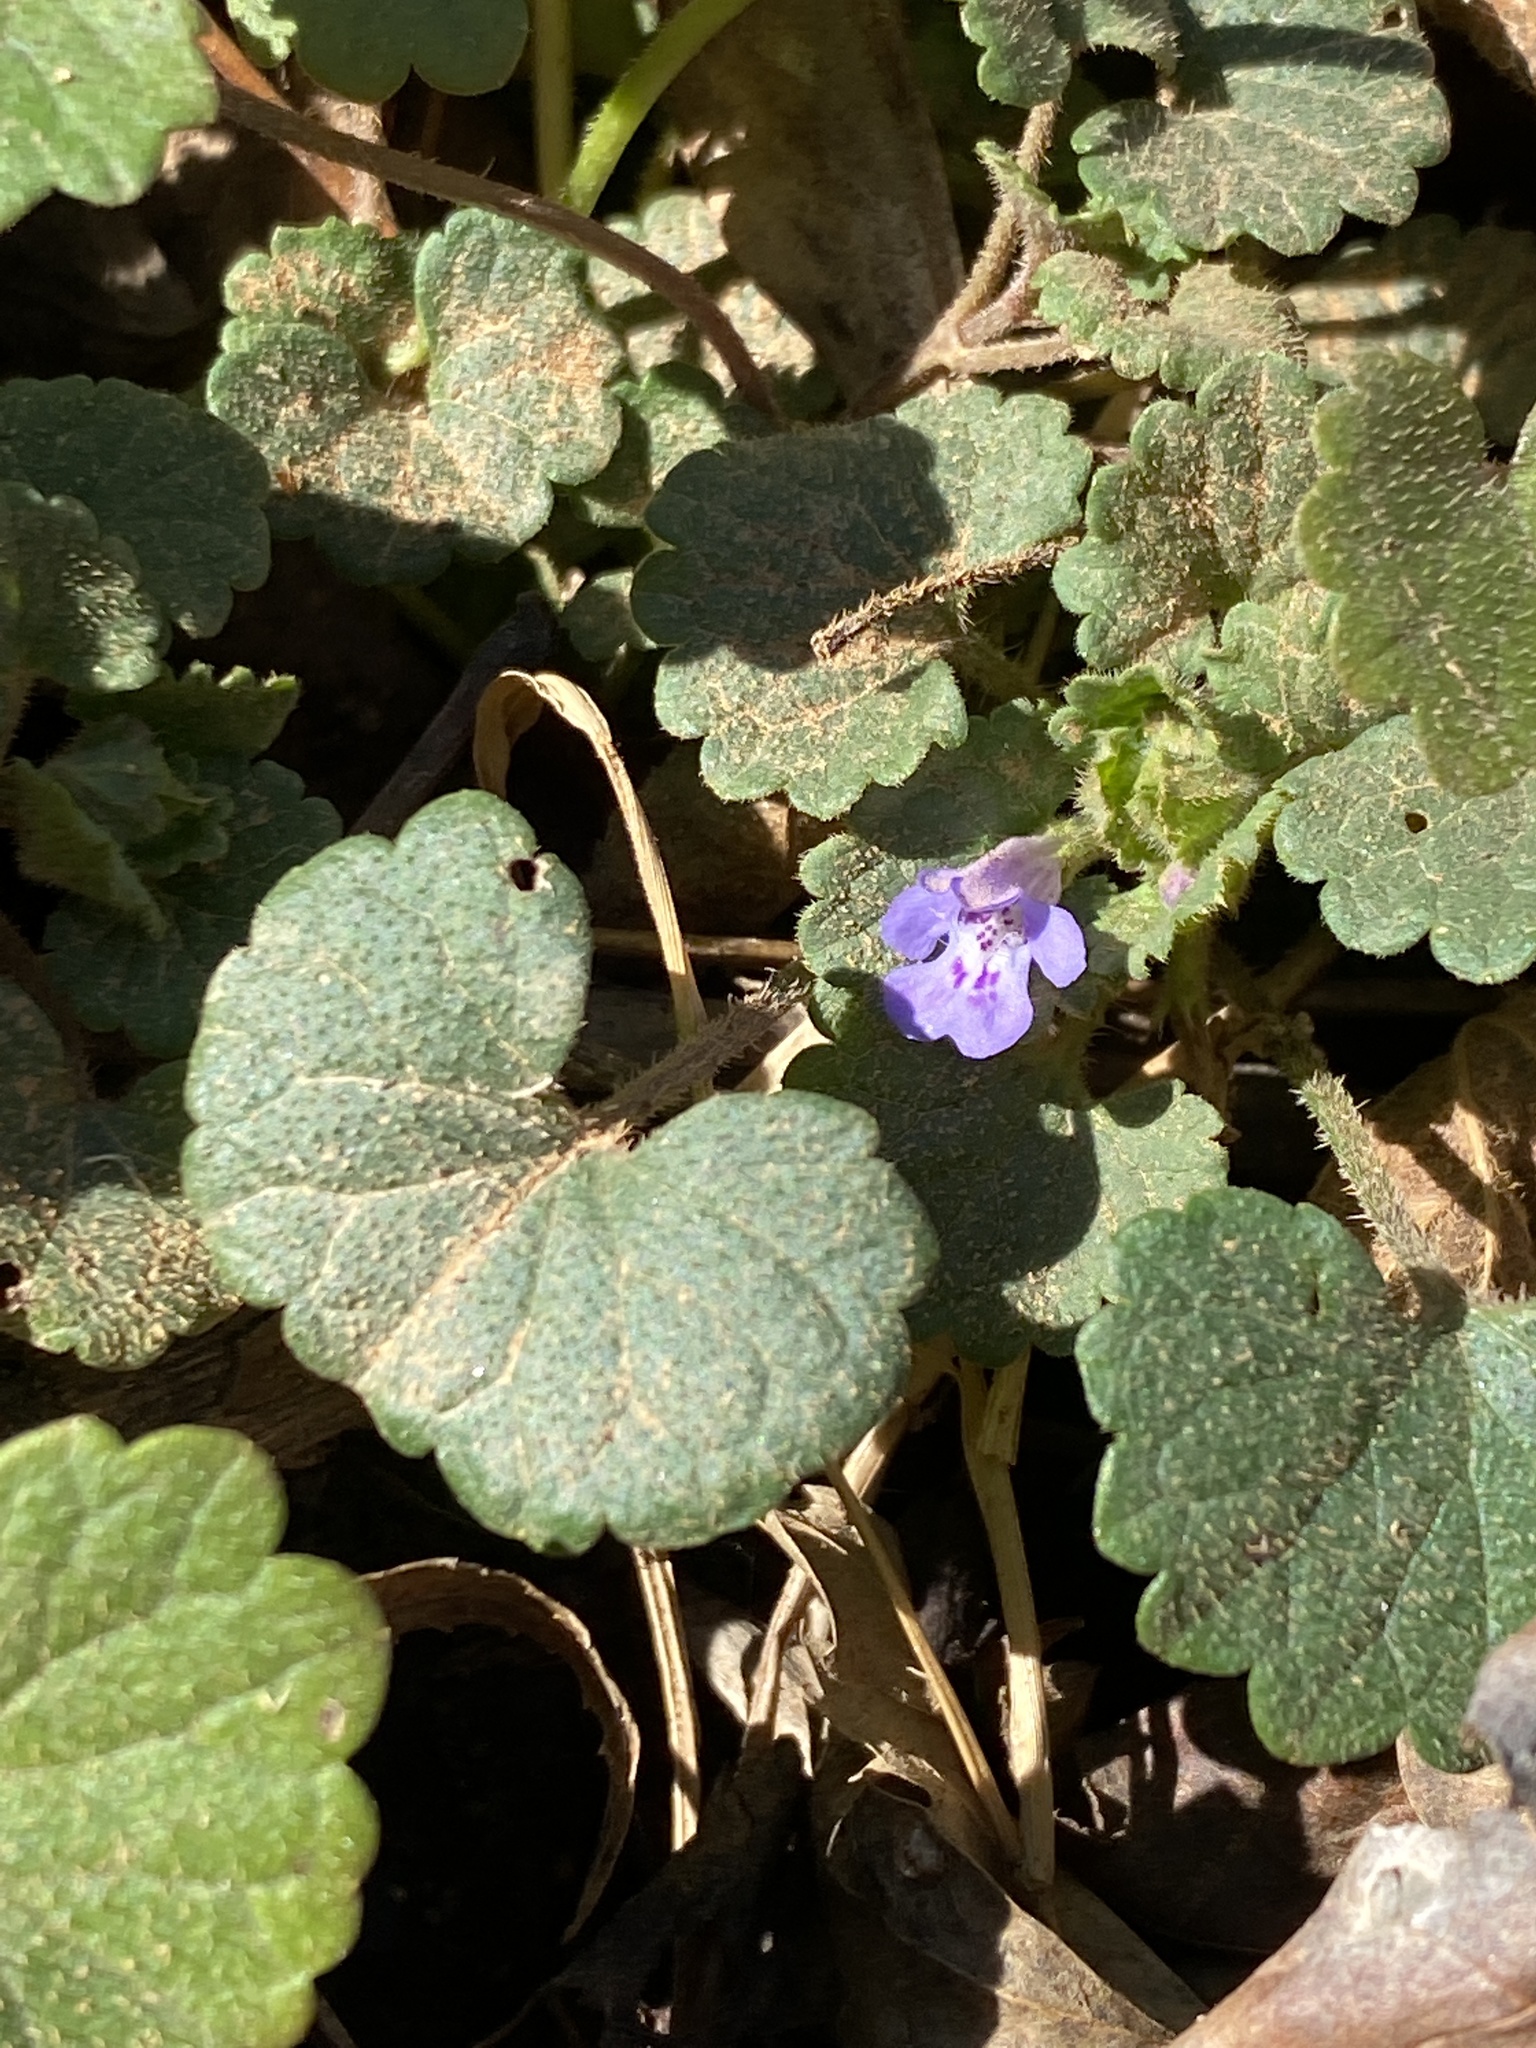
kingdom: Plantae
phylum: Tracheophyta
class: Magnoliopsida
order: Lamiales
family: Lamiaceae
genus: Glechoma
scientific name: Glechoma hederacea
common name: Ground ivy
